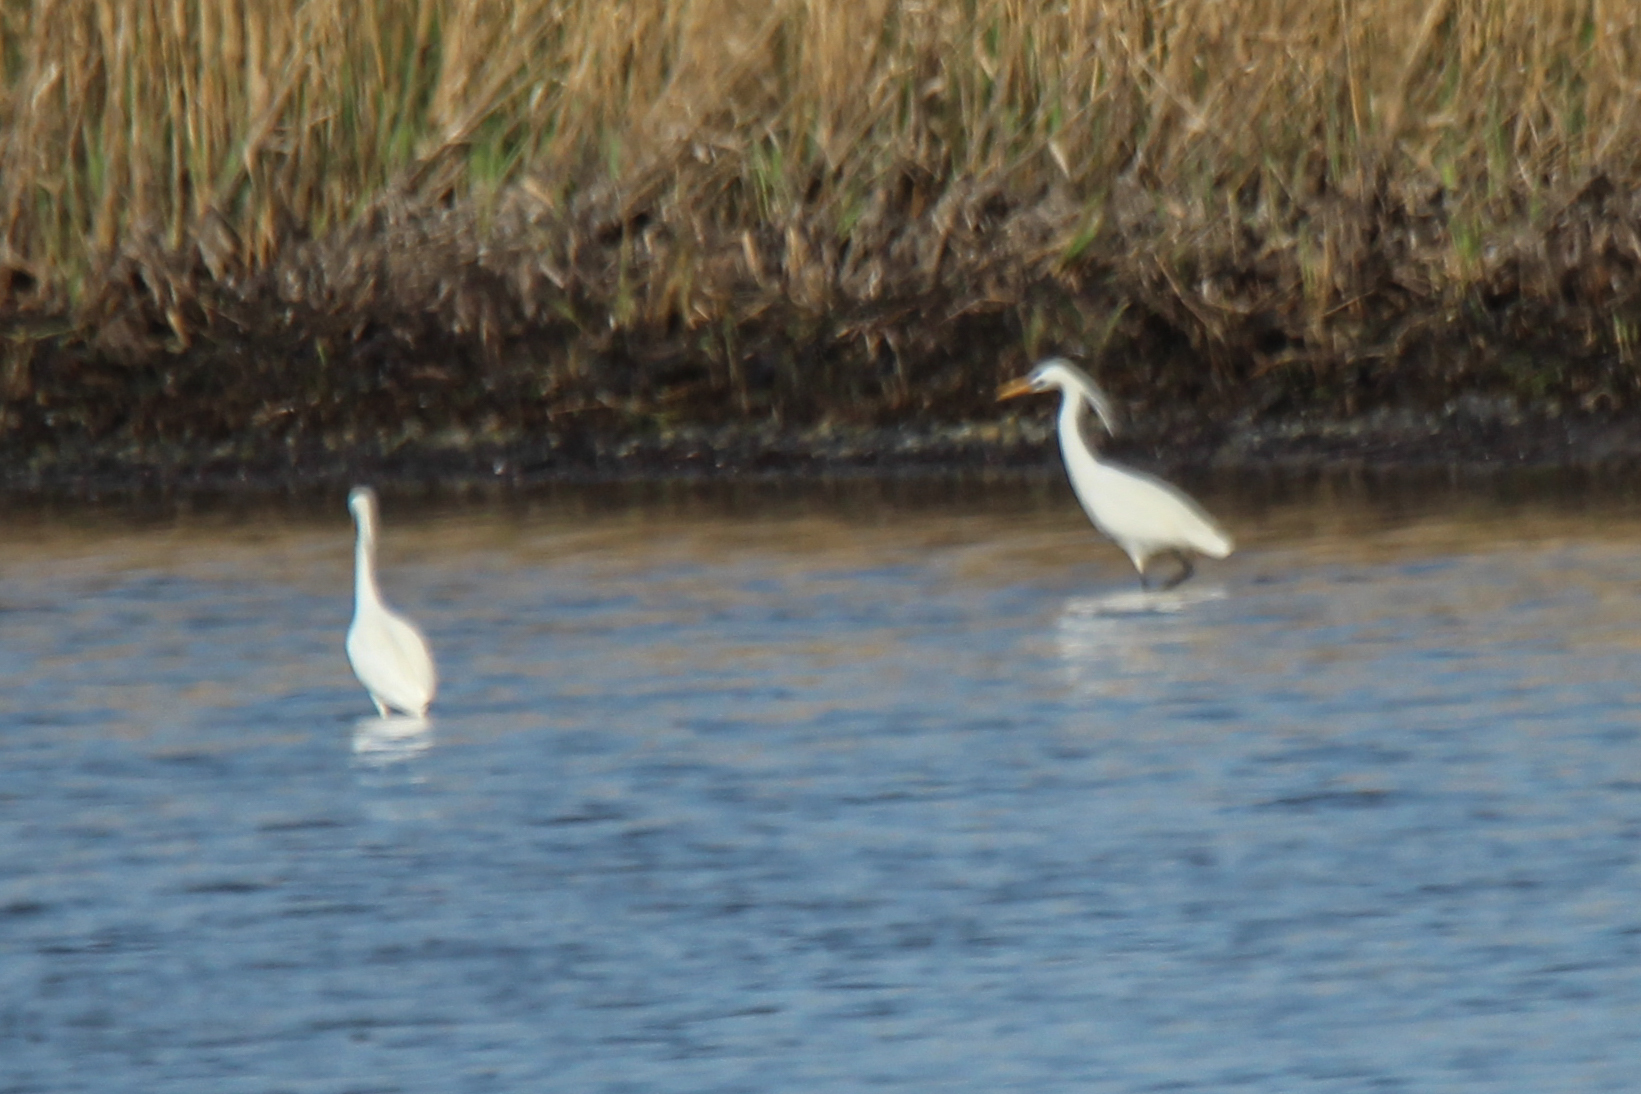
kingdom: Animalia
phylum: Chordata
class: Aves
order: Pelecaniformes
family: Ardeidae
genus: Egretta
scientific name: Egretta eulophotes
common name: Chinese egret
